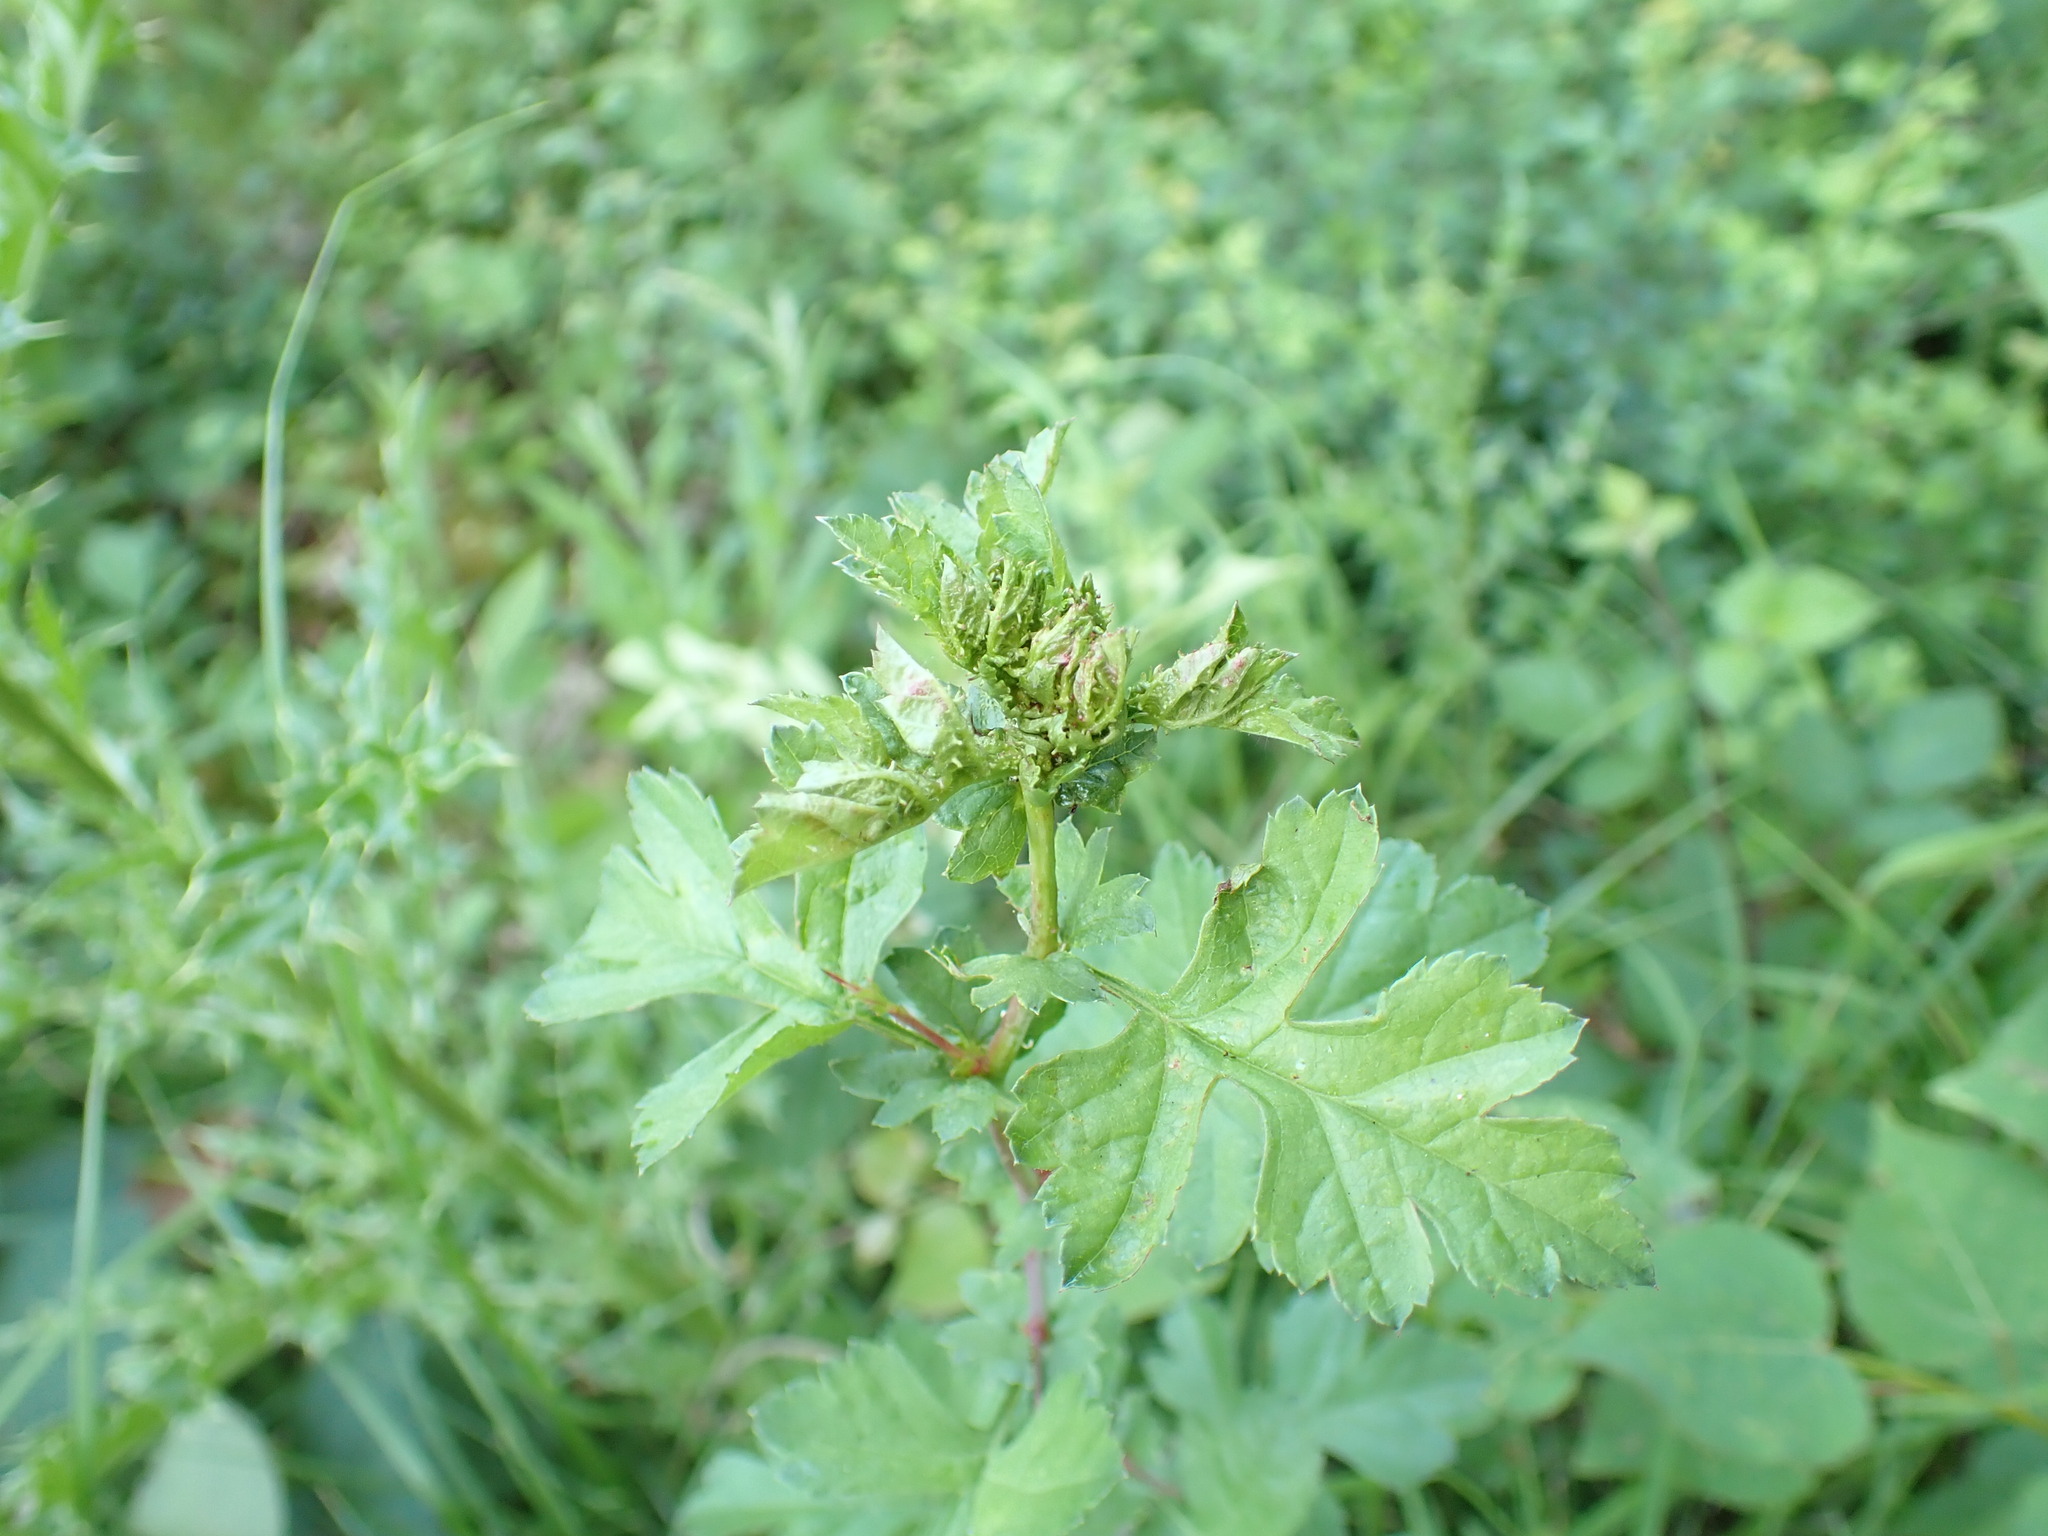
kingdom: Animalia
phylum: Arthropoda
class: Insecta
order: Diptera
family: Cecidomyiidae
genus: Dasineura
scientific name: Dasineura crataegi
